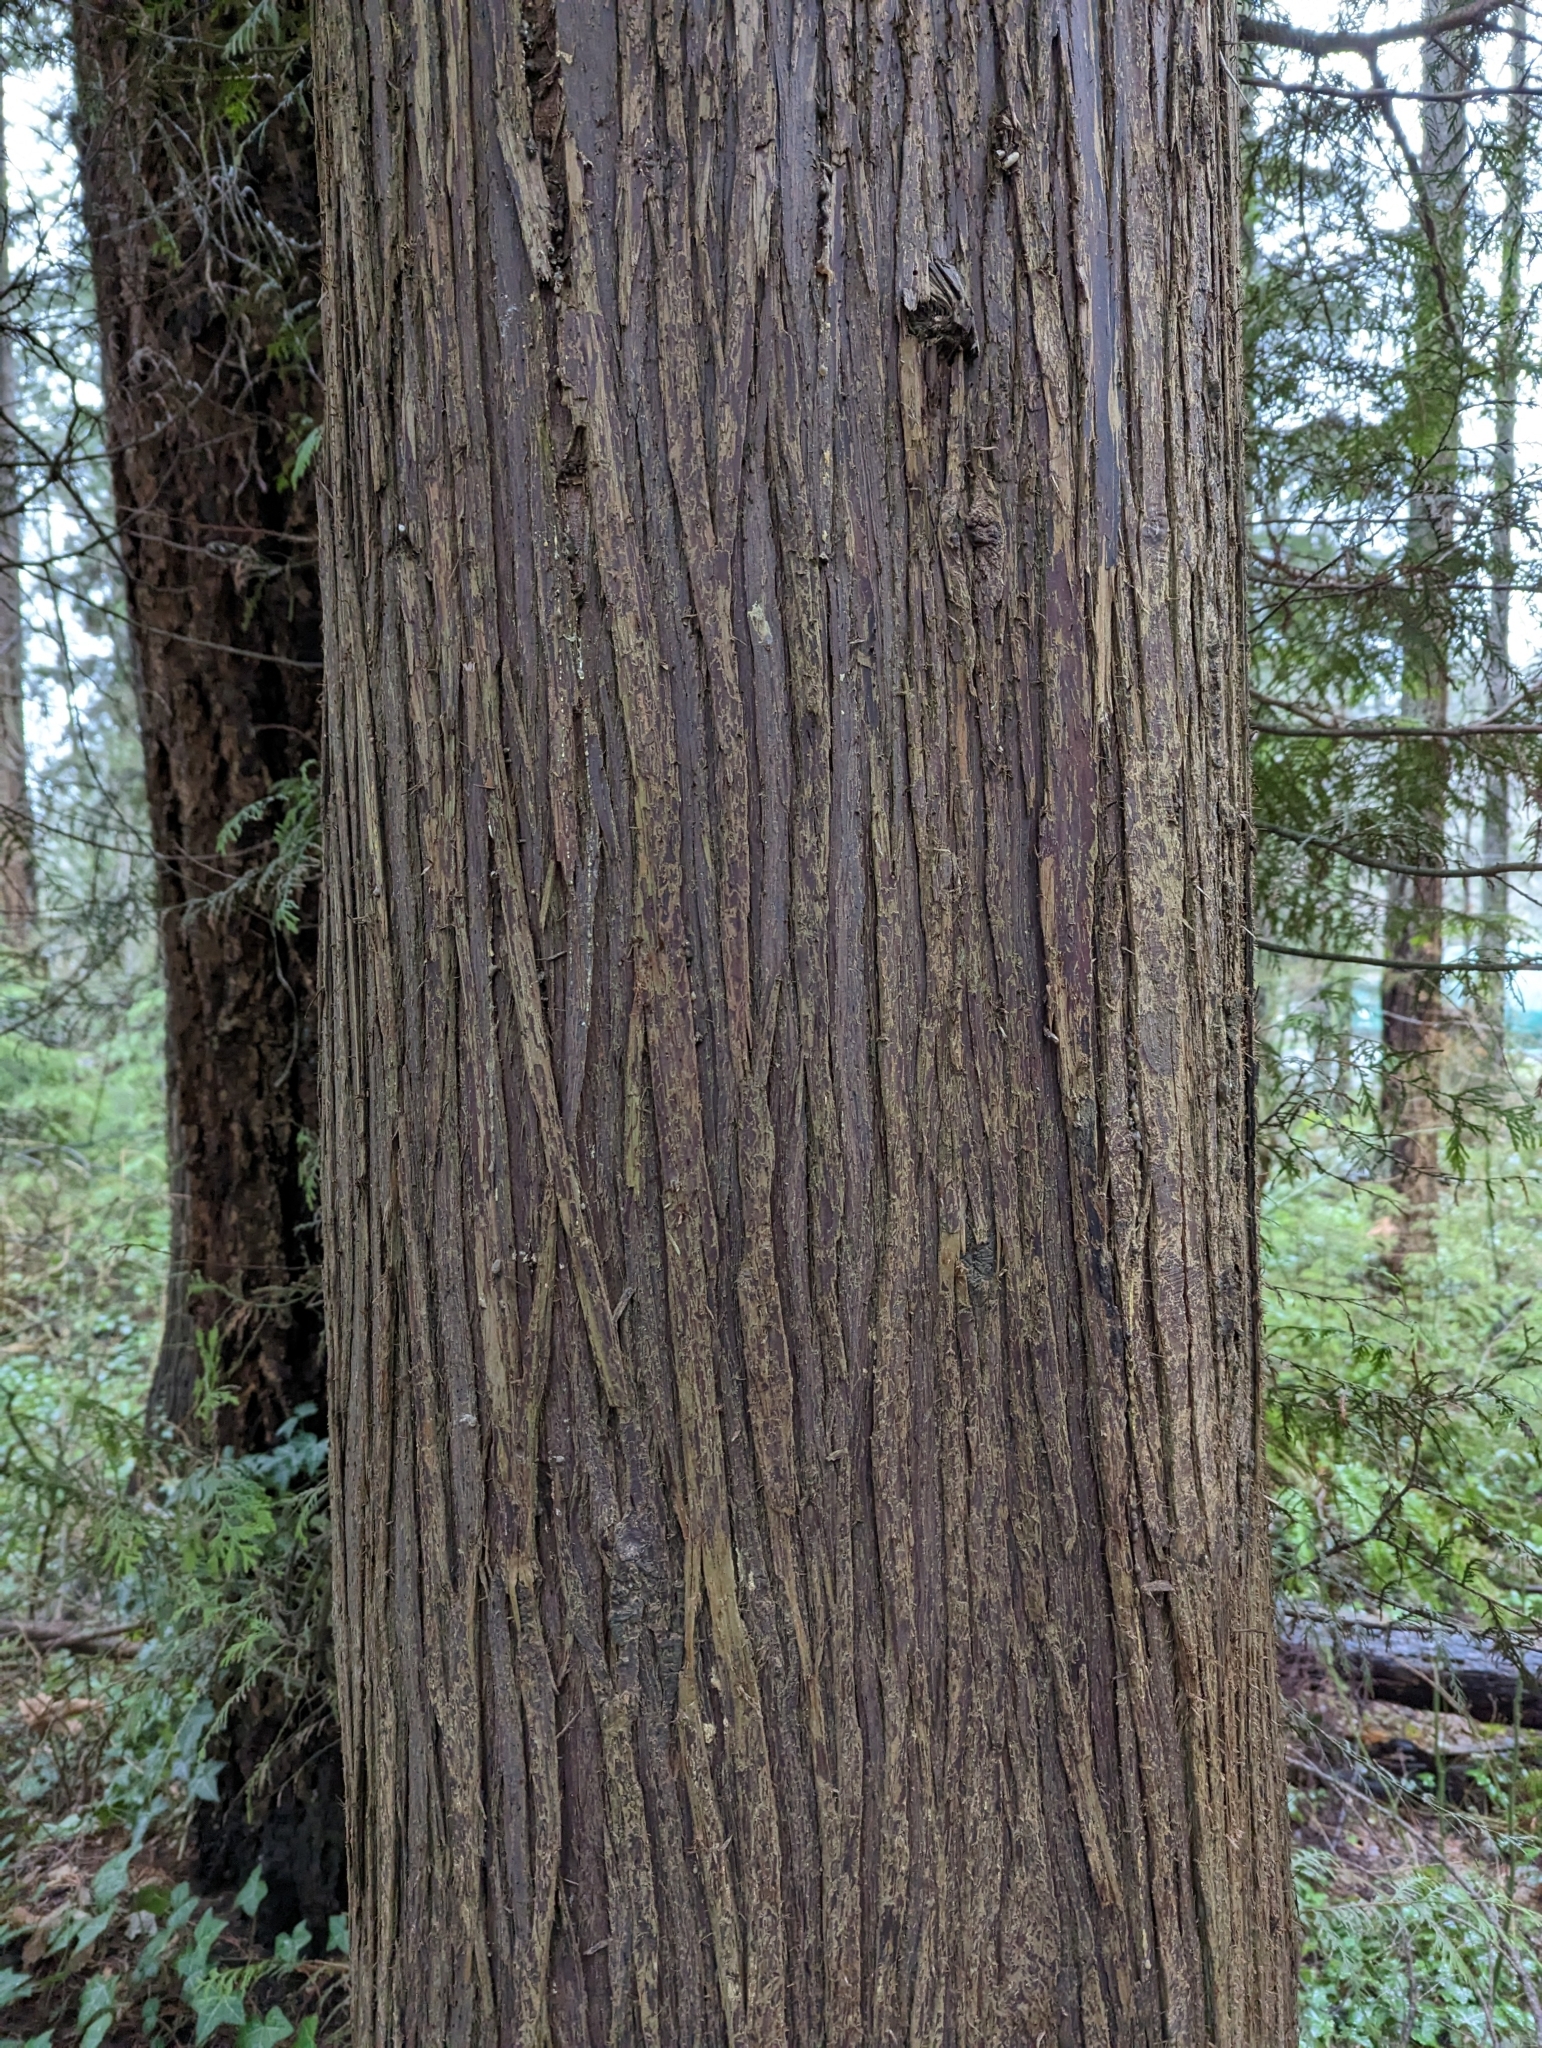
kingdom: Plantae
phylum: Tracheophyta
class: Pinopsida
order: Pinales
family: Cupressaceae
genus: Thuja
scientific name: Thuja plicata
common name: Western red-cedar
